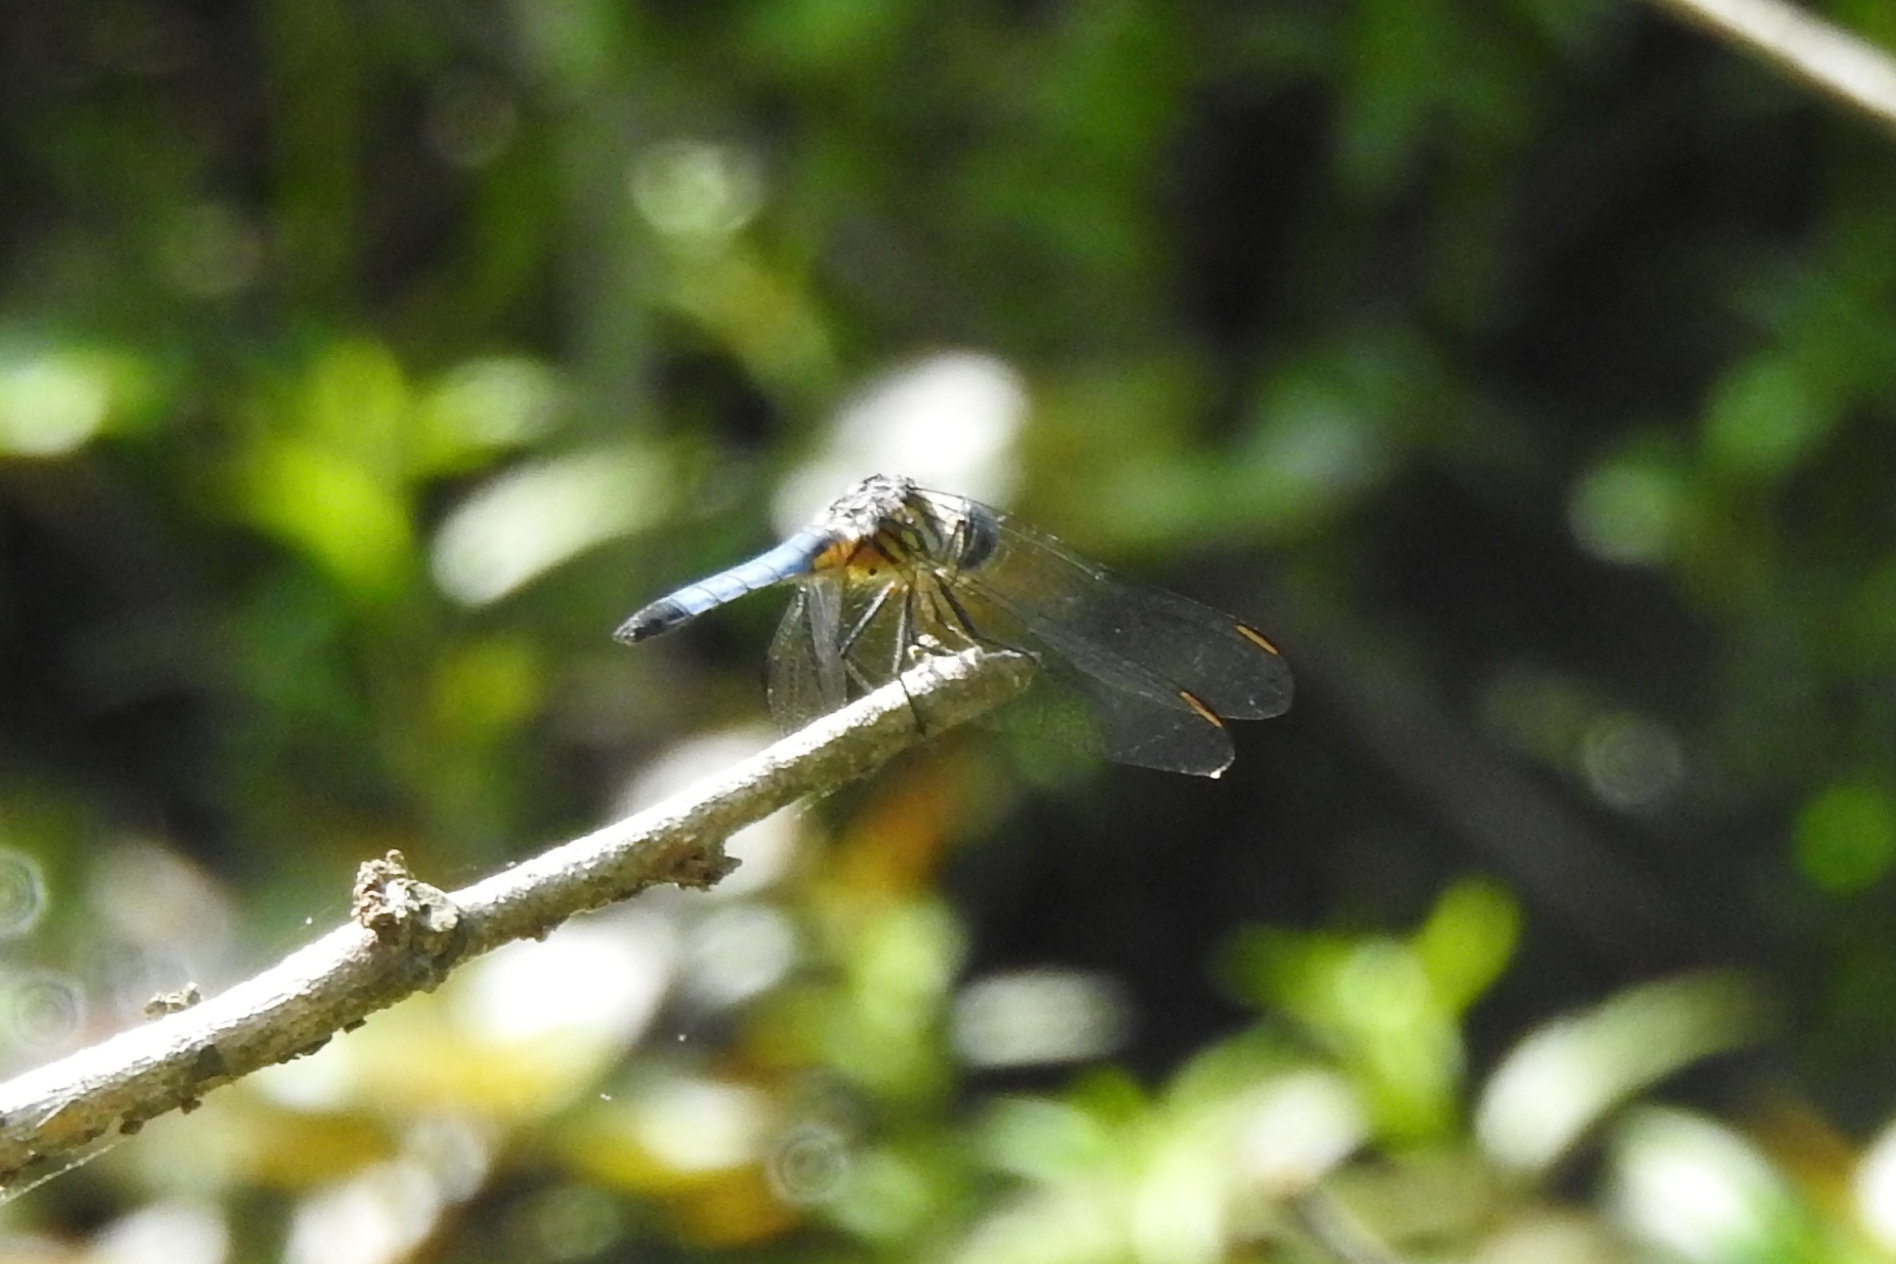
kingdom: Animalia
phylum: Arthropoda
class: Insecta
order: Odonata
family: Libellulidae
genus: Pachydiplax
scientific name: Pachydiplax longipennis
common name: Blue dasher
